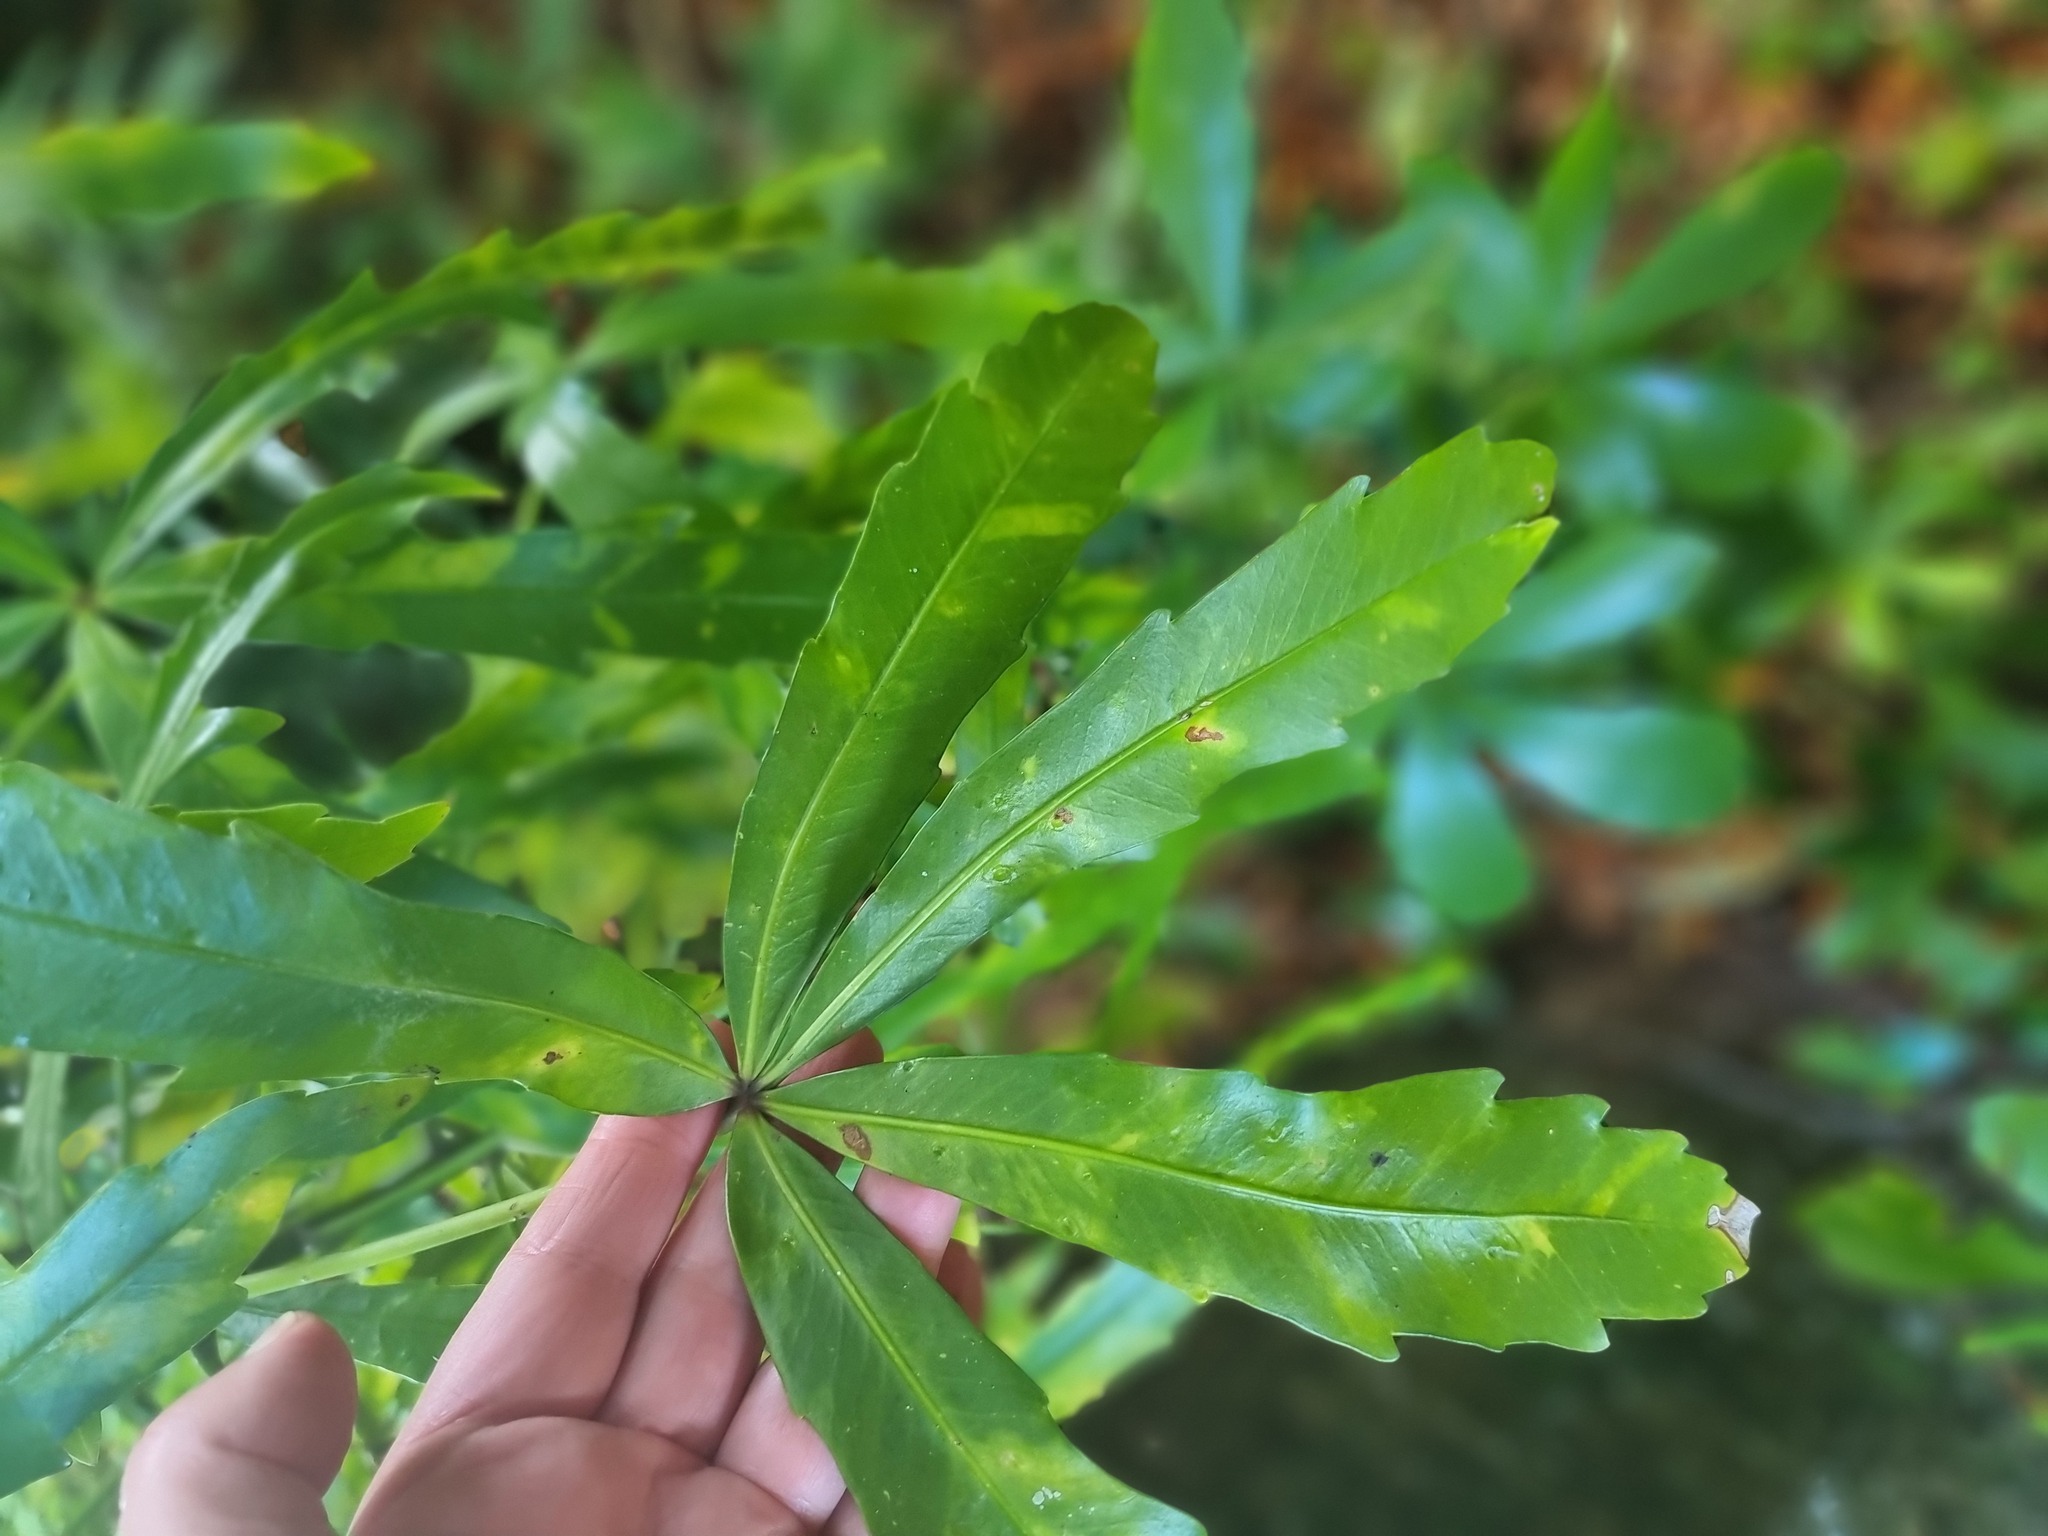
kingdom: Plantae
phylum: Tracheophyta
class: Magnoliopsida
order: Apiales
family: Araliaceae
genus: Pseudopanax
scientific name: Pseudopanax lessonii
